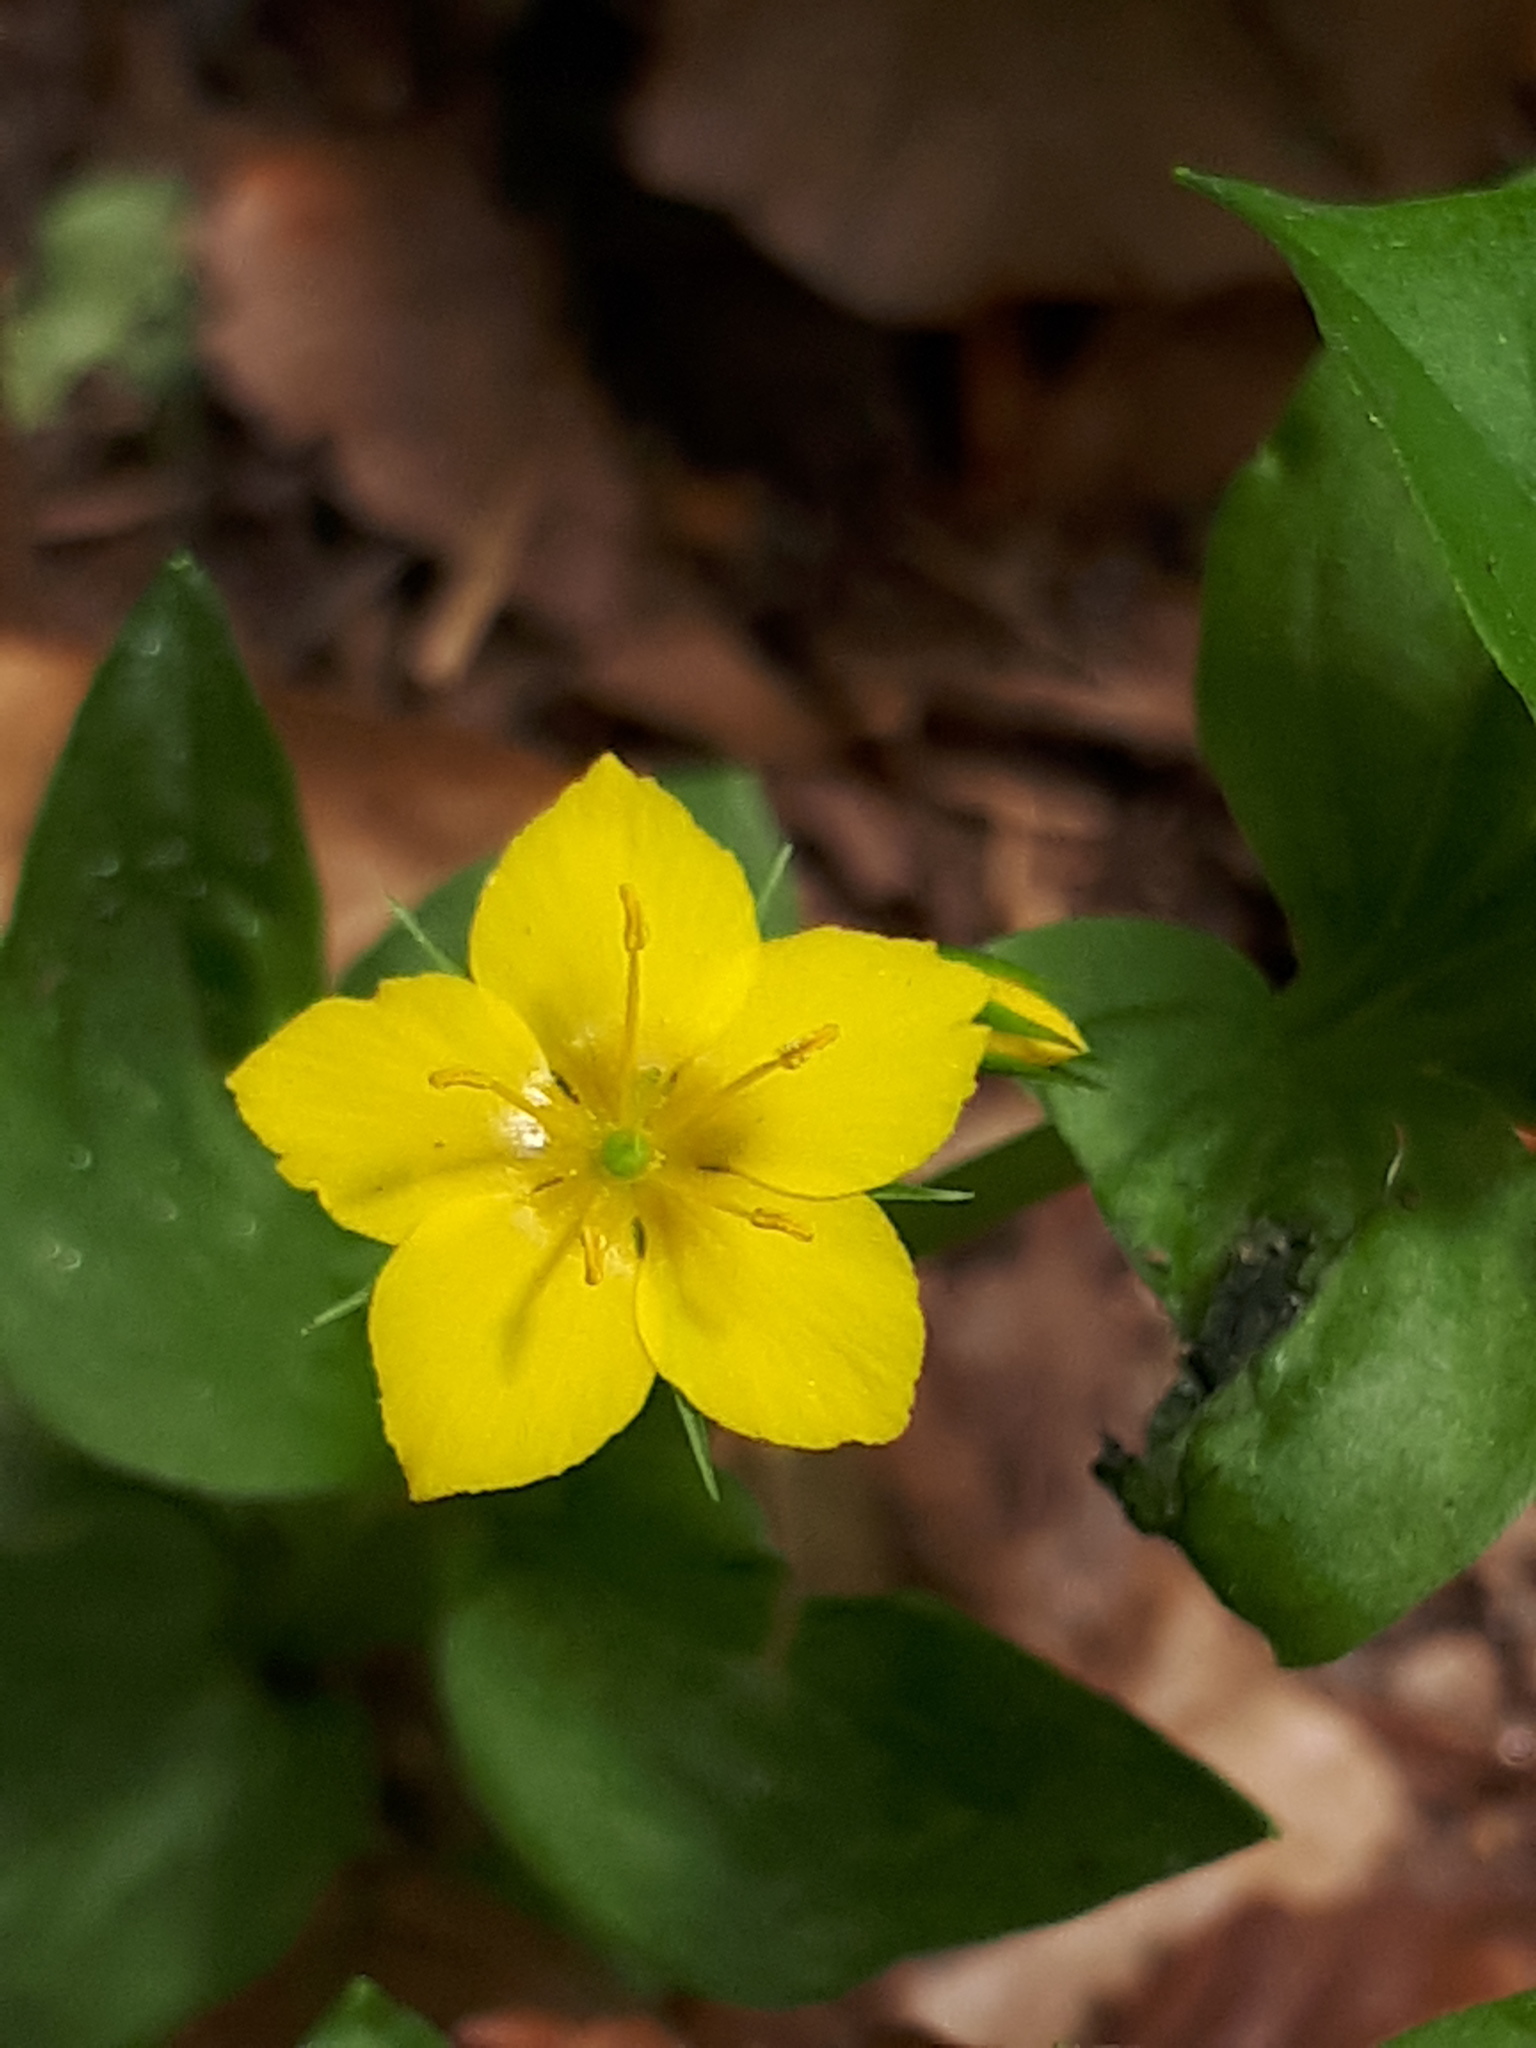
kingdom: Plantae
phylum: Tracheophyta
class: Magnoliopsida
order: Ericales
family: Primulaceae
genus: Lysimachia
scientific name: Lysimachia nemorum
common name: Yellow pimpernel
